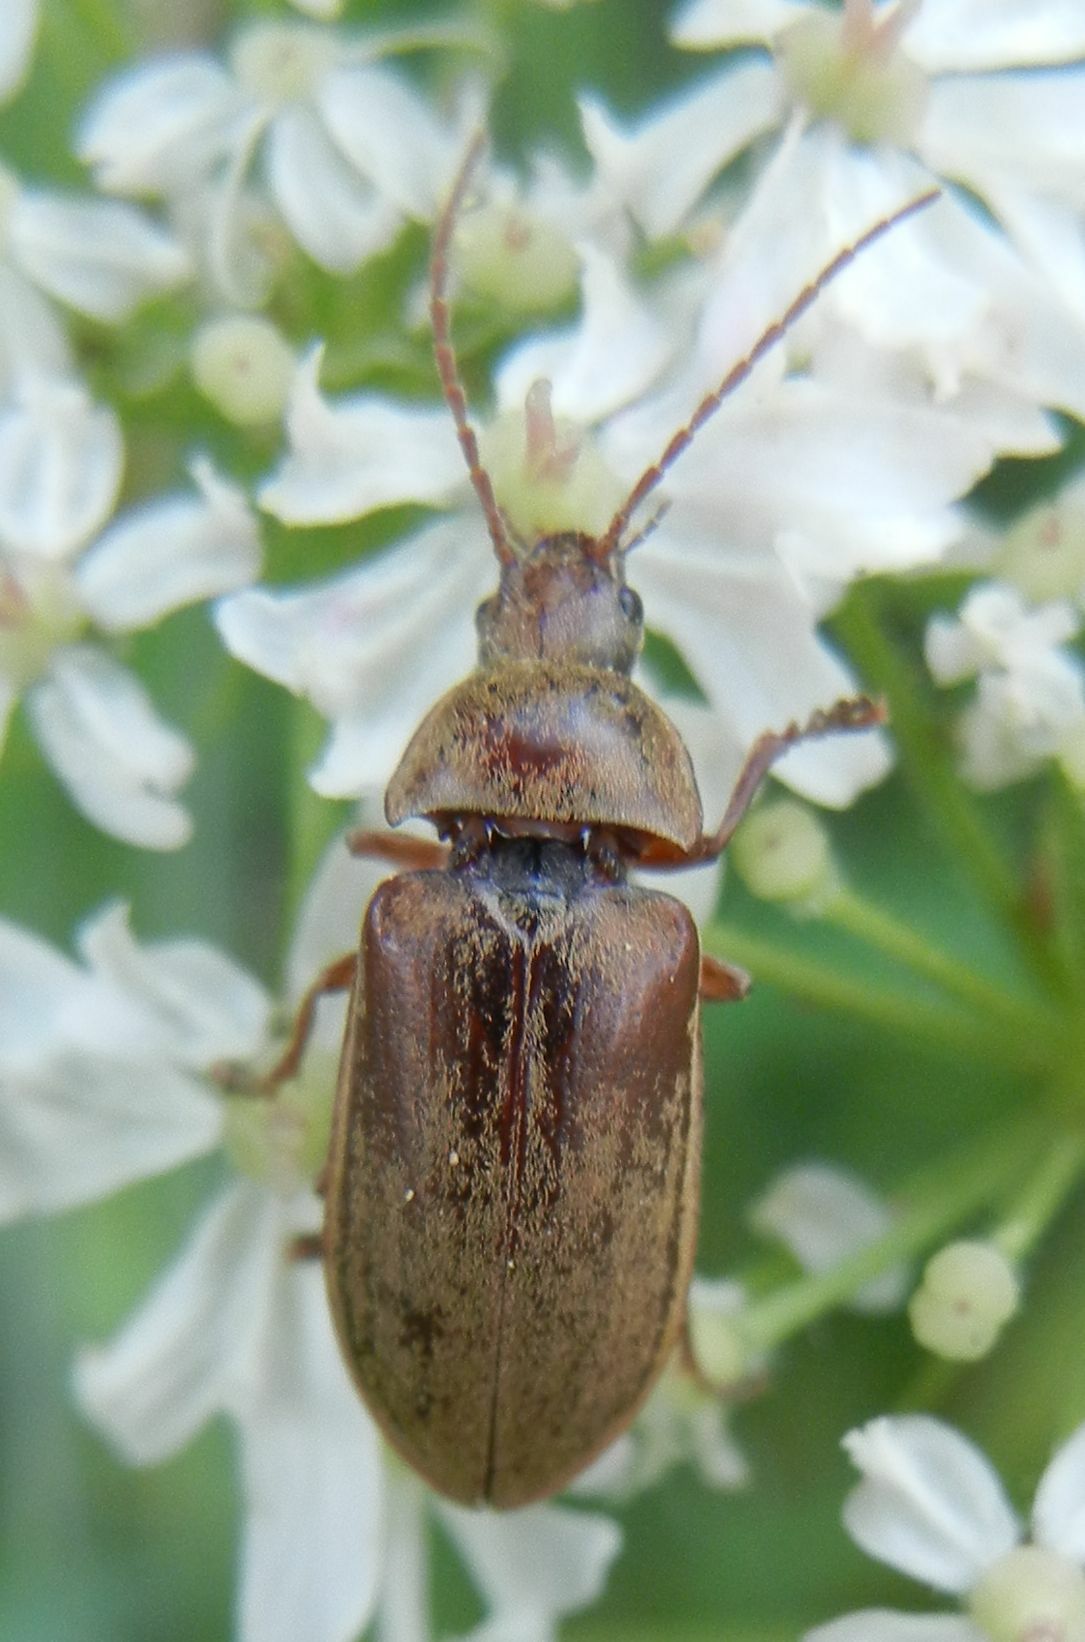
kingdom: Animalia
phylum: Arthropoda
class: Insecta
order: Coleoptera
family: Dascillidae
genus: Dascillus
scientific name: Dascillus cervinus
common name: Orchid beetle
